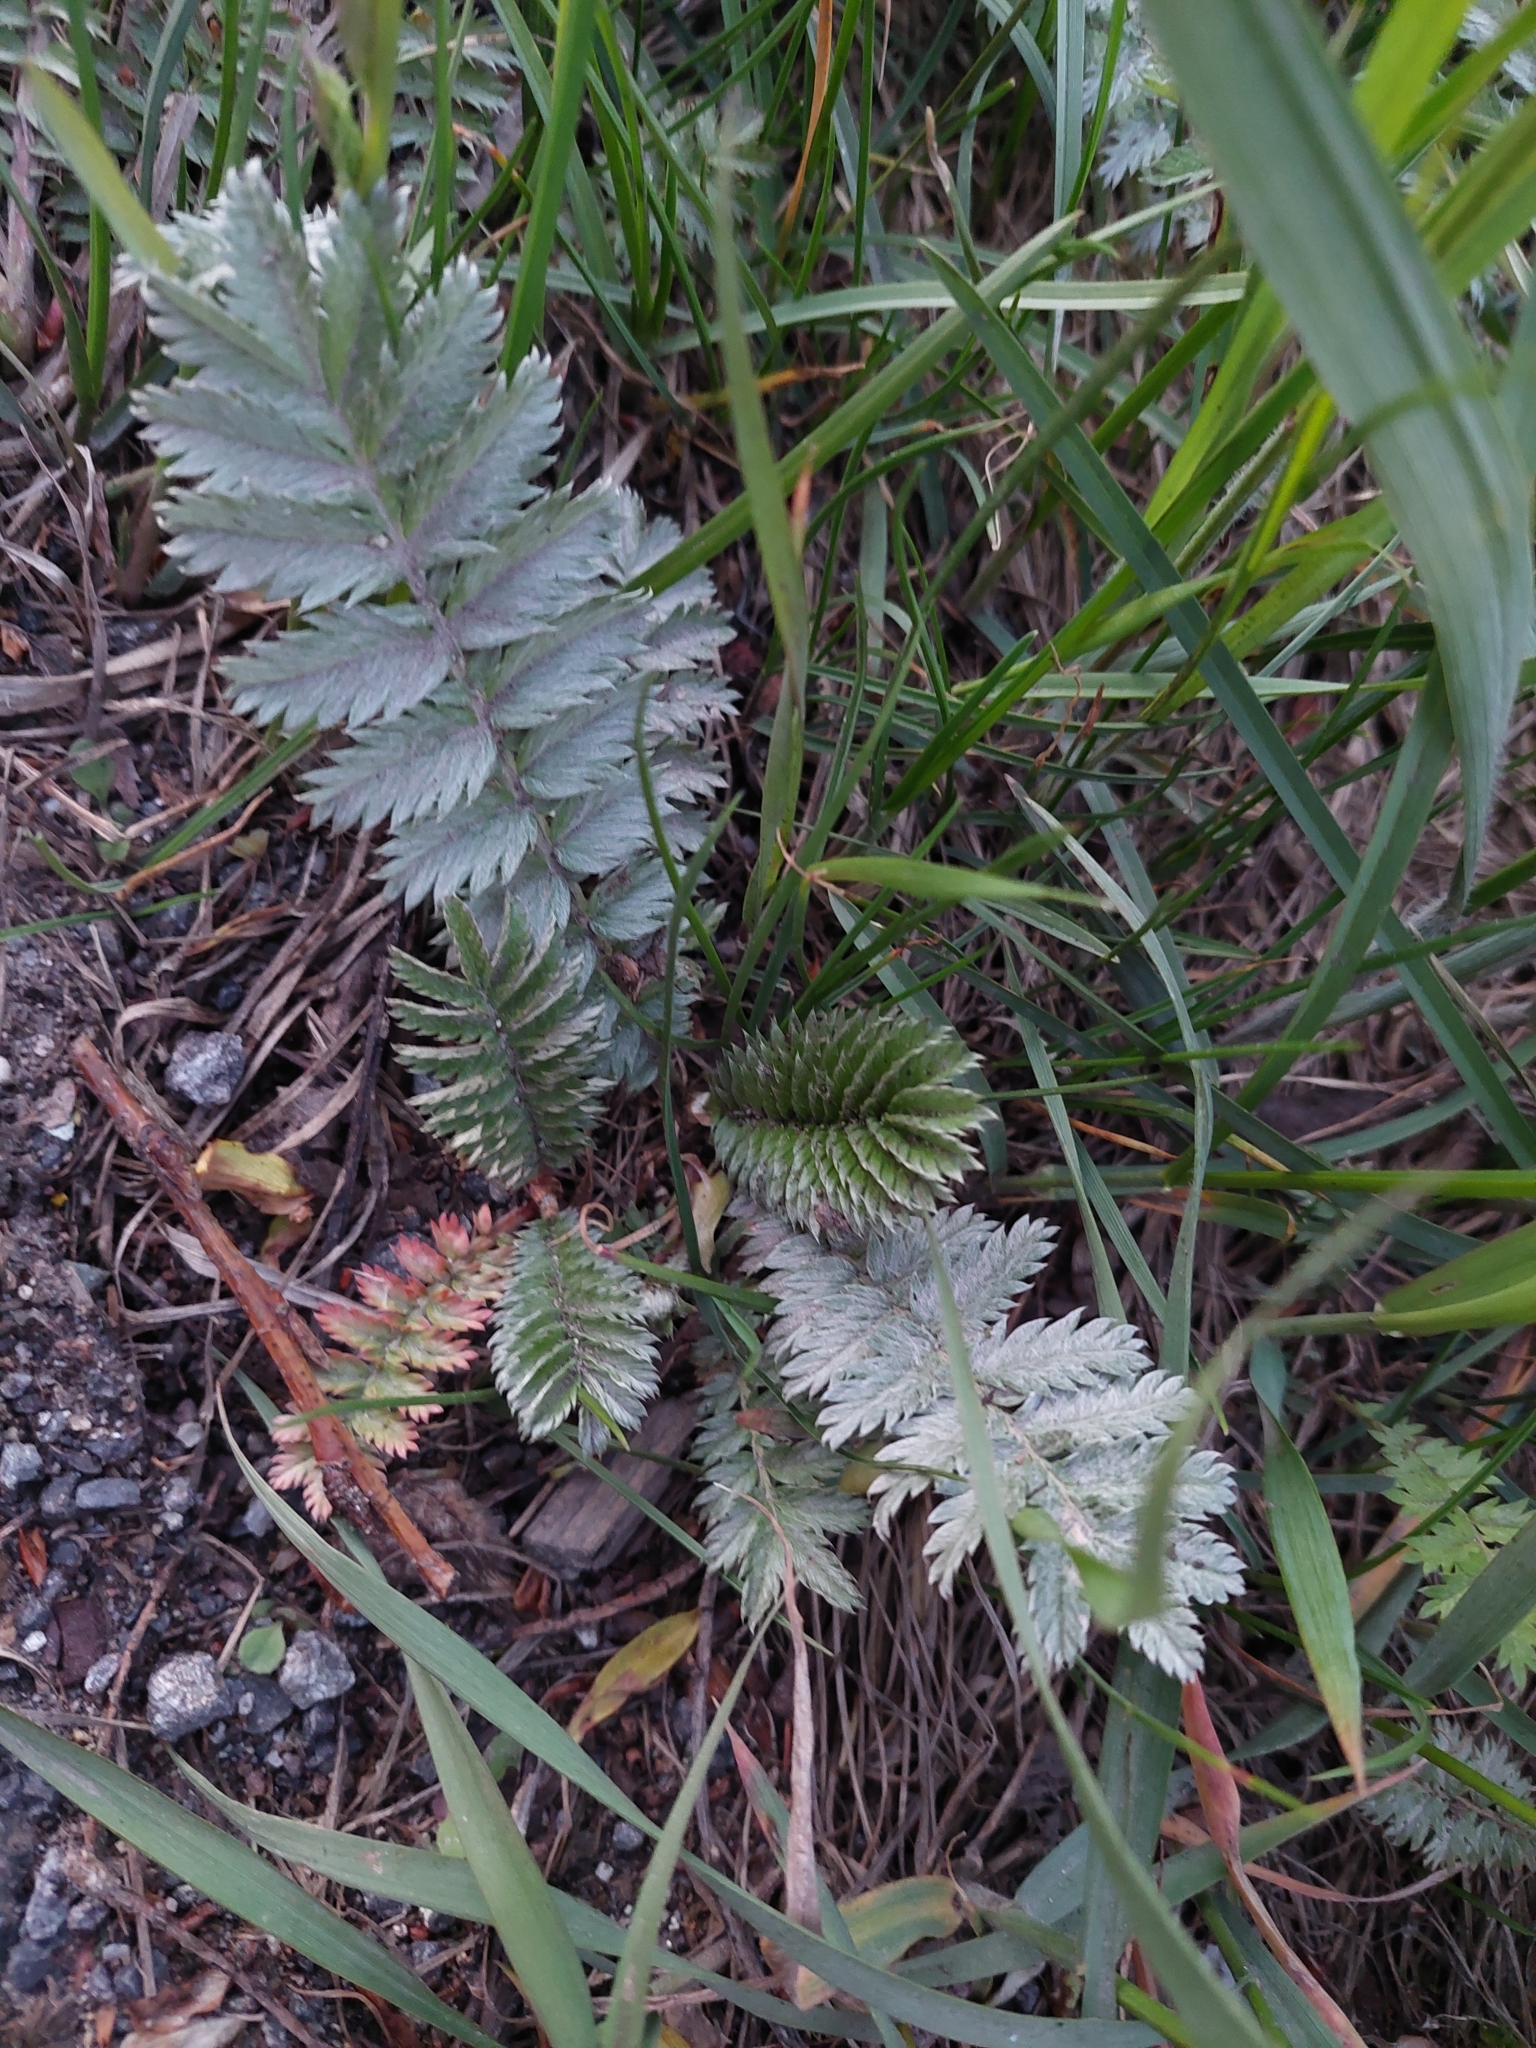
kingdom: Plantae
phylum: Tracheophyta
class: Magnoliopsida
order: Rosales
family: Rosaceae
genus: Argentina
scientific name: Argentina anserina
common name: Common silverweed
